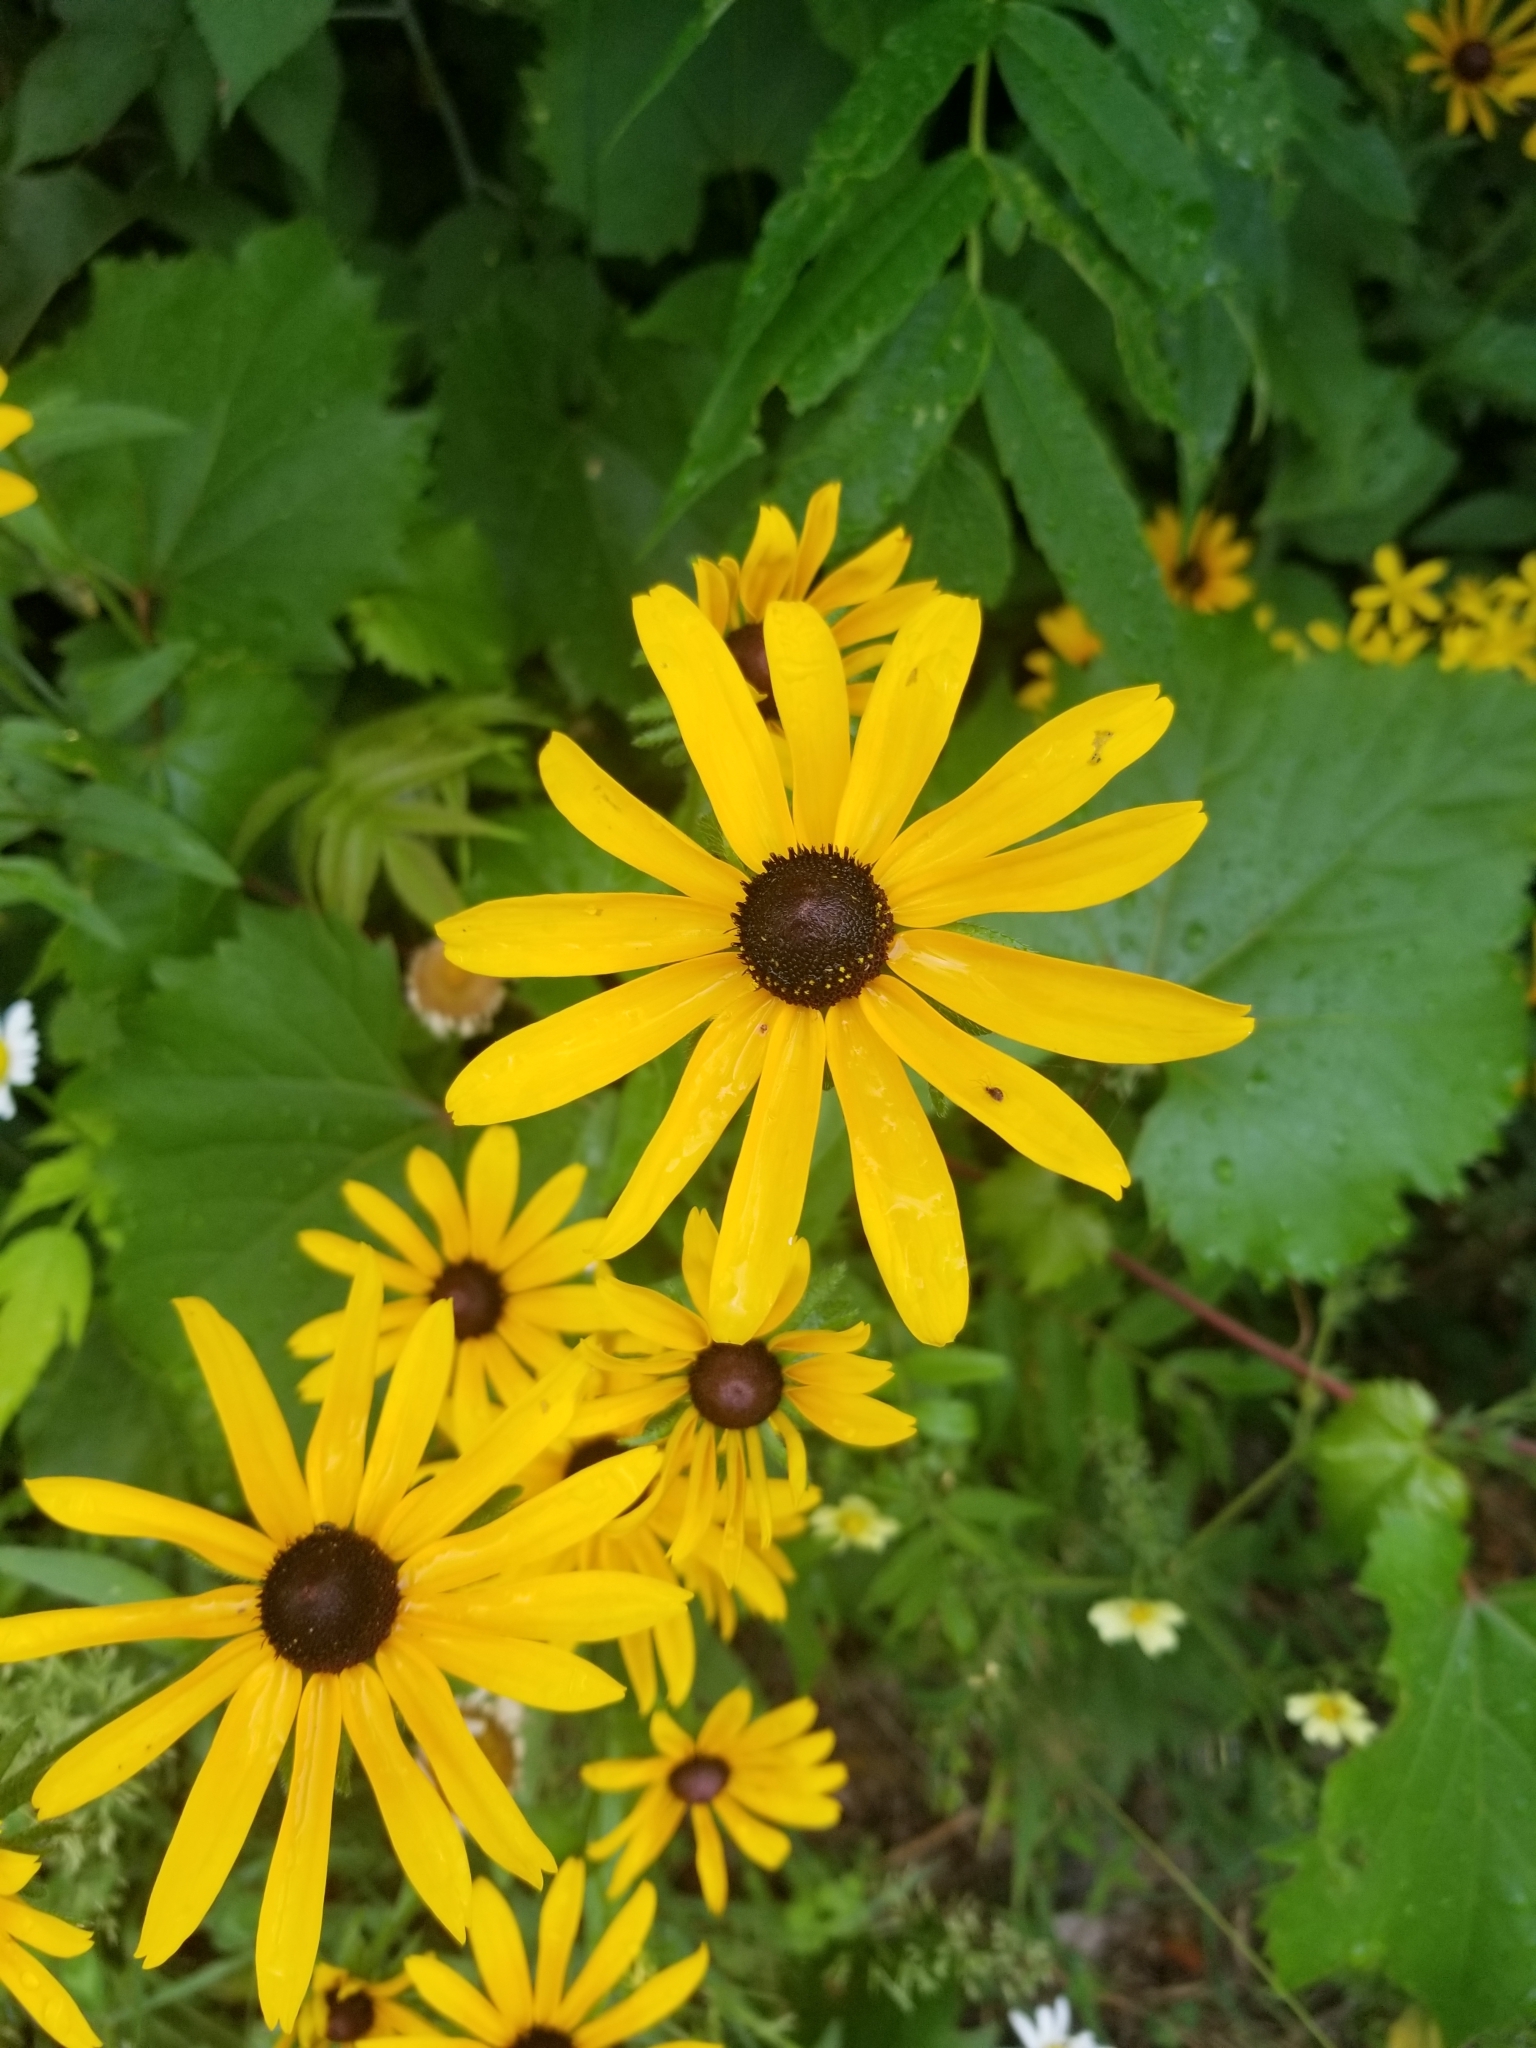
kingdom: Plantae
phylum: Tracheophyta
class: Magnoliopsida
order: Asterales
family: Asteraceae
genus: Rudbeckia
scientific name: Rudbeckia hirta
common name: Black-eyed-susan
